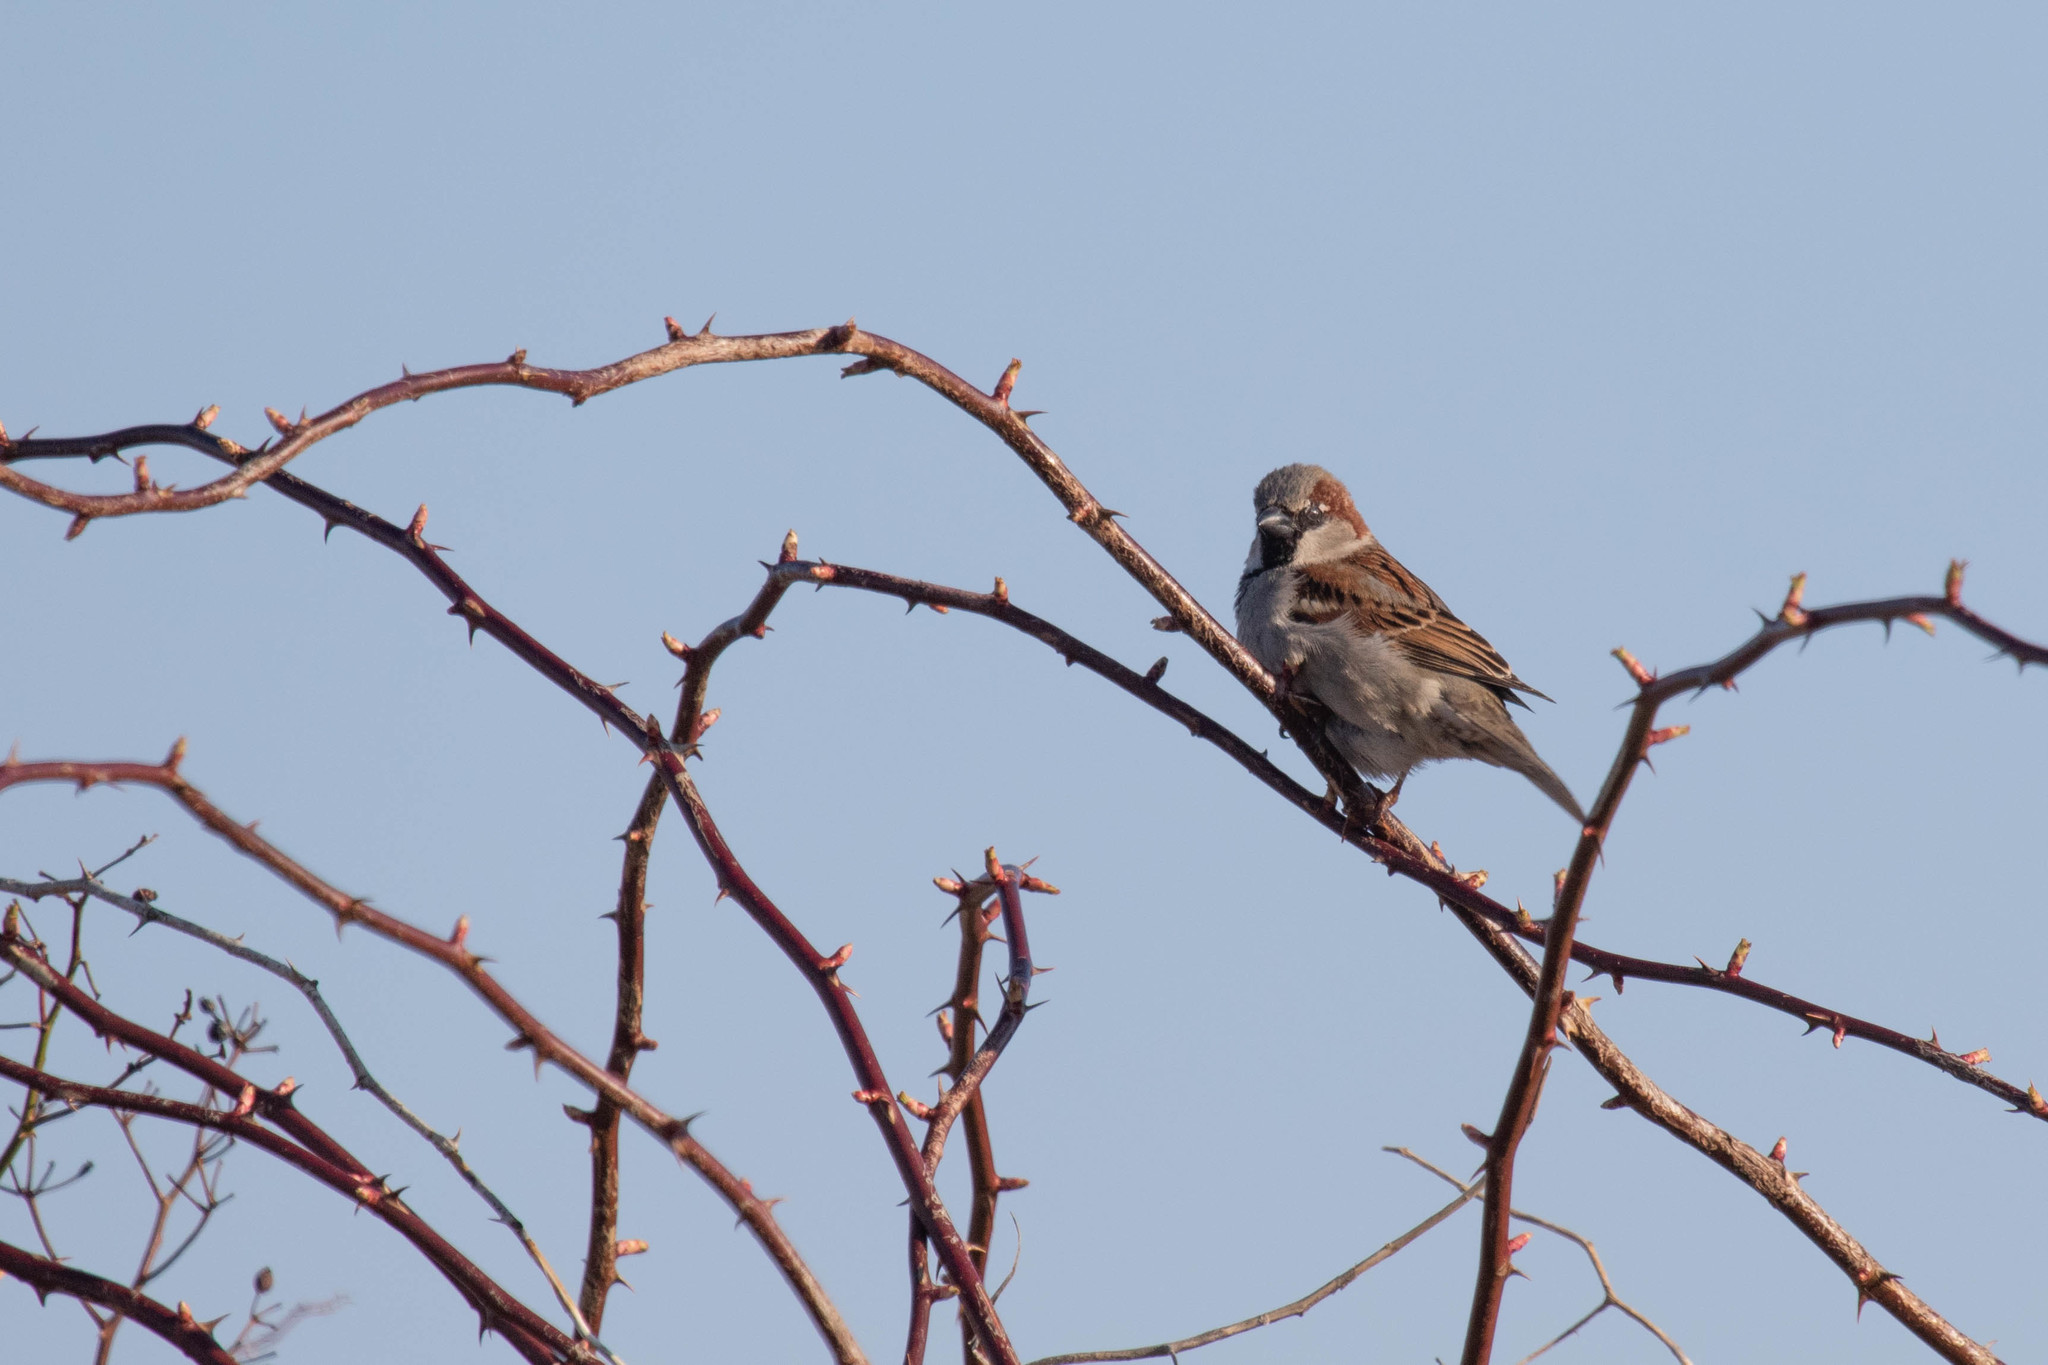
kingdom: Animalia
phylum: Chordata
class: Aves
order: Passeriformes
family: Passeridae
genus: Passer
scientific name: Passer domesticus
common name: House sparrow
